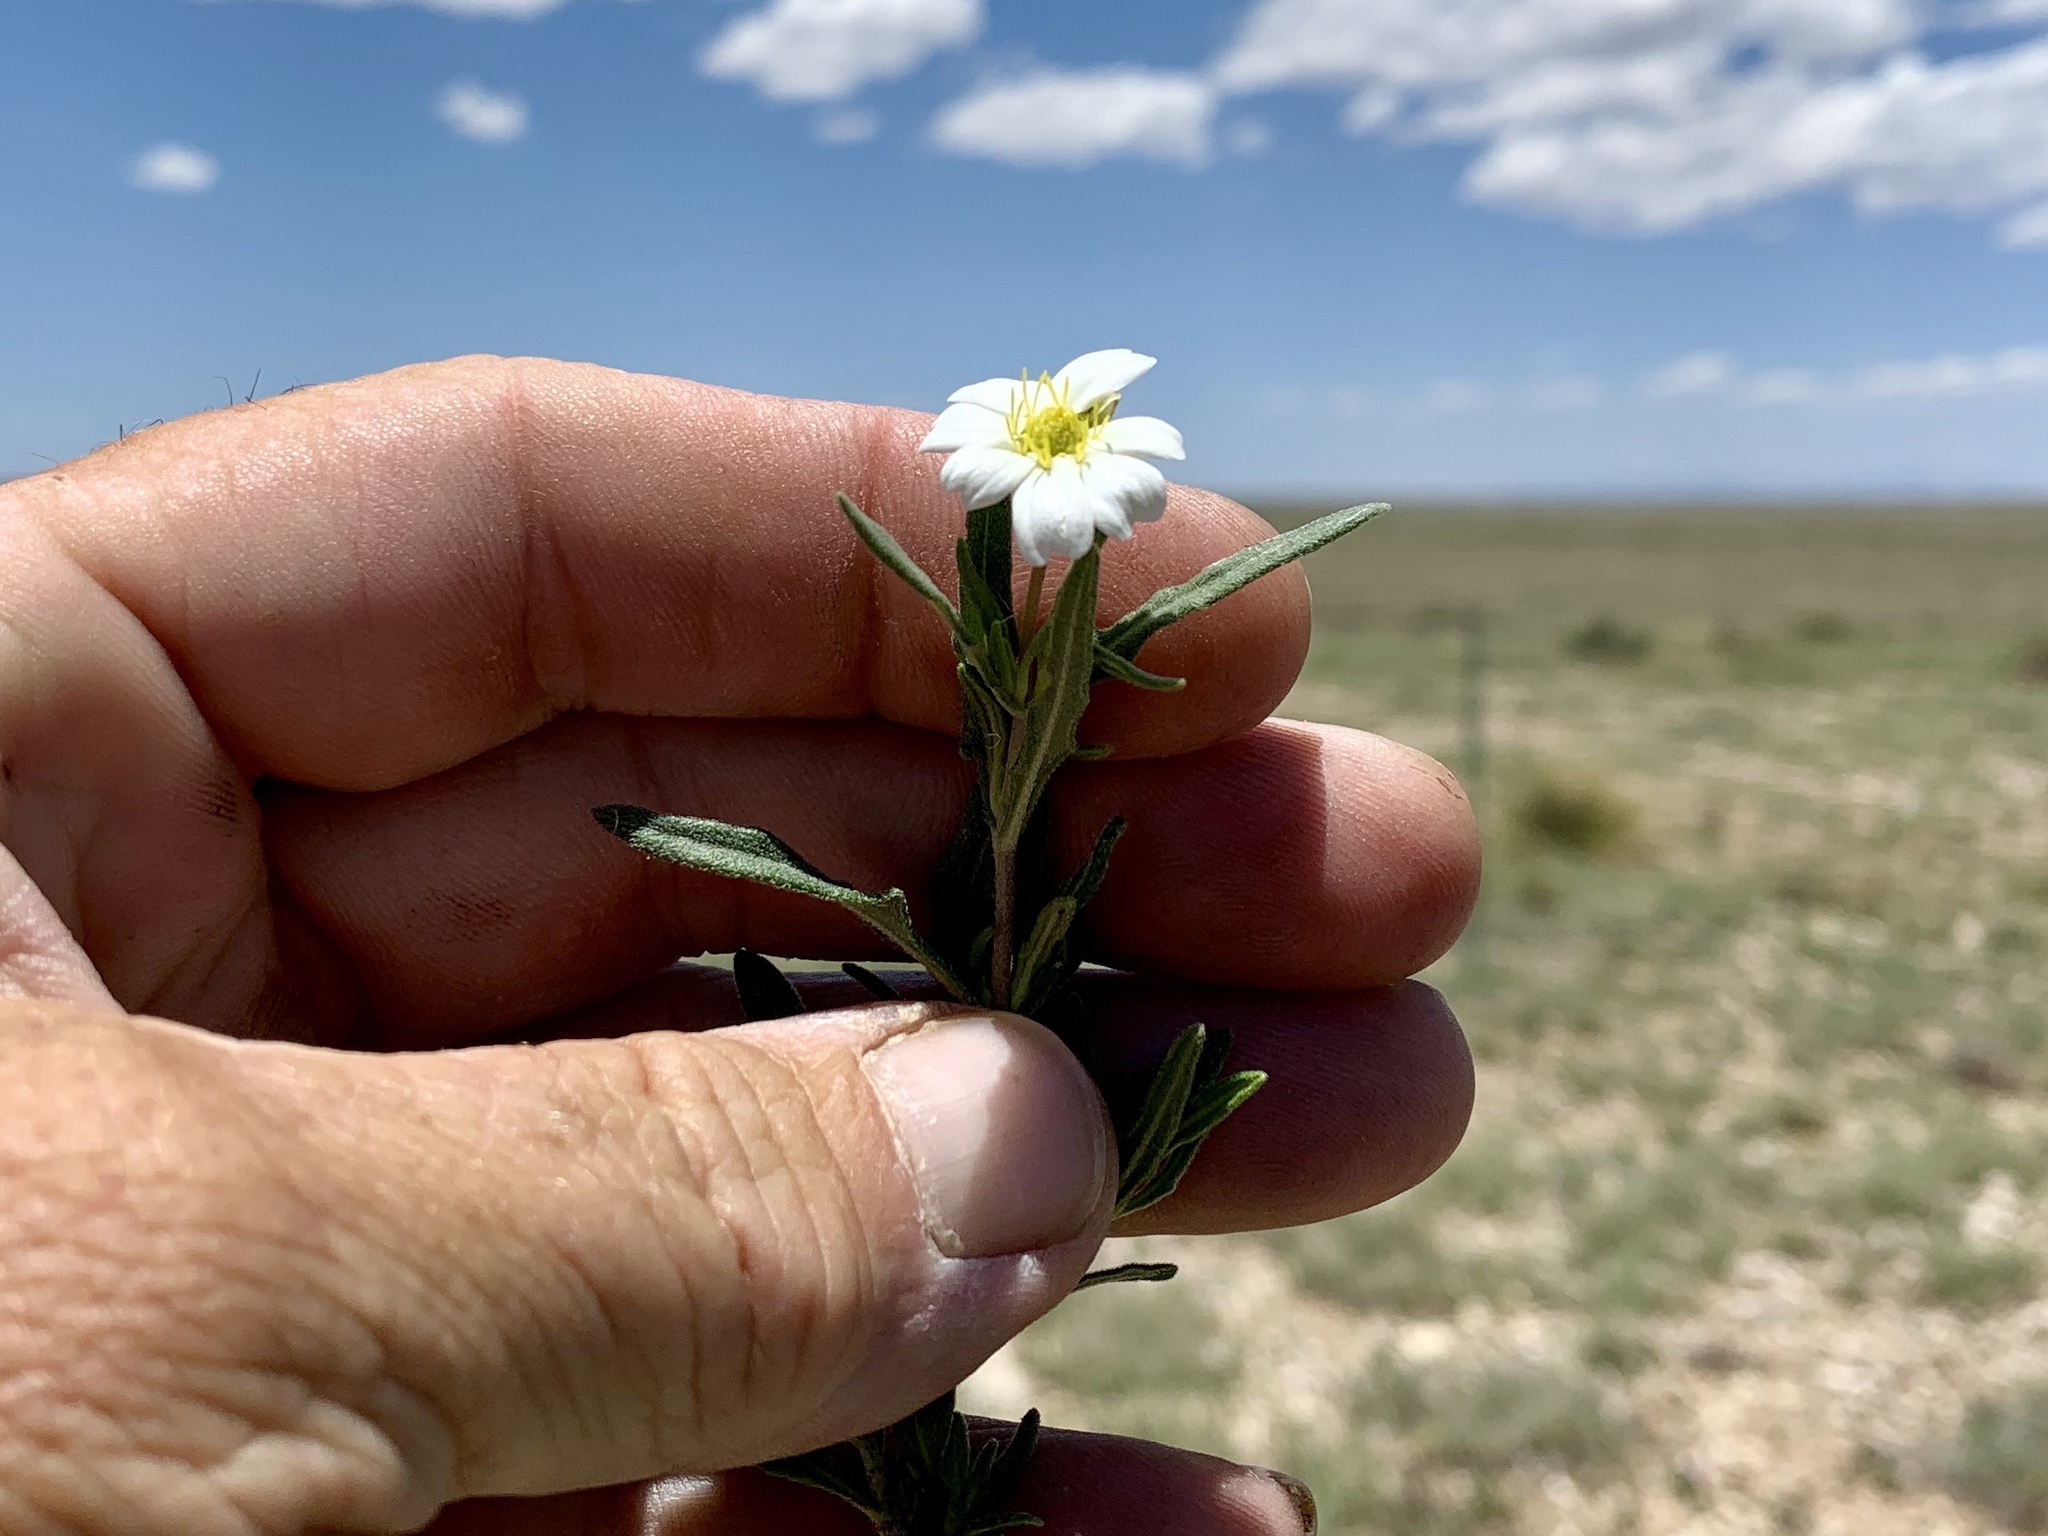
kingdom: Plantae
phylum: Tracheophyta
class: Magnoliopsida
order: Asterales
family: Asteraceae
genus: Melampodium
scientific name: Melampodium leucanthum
